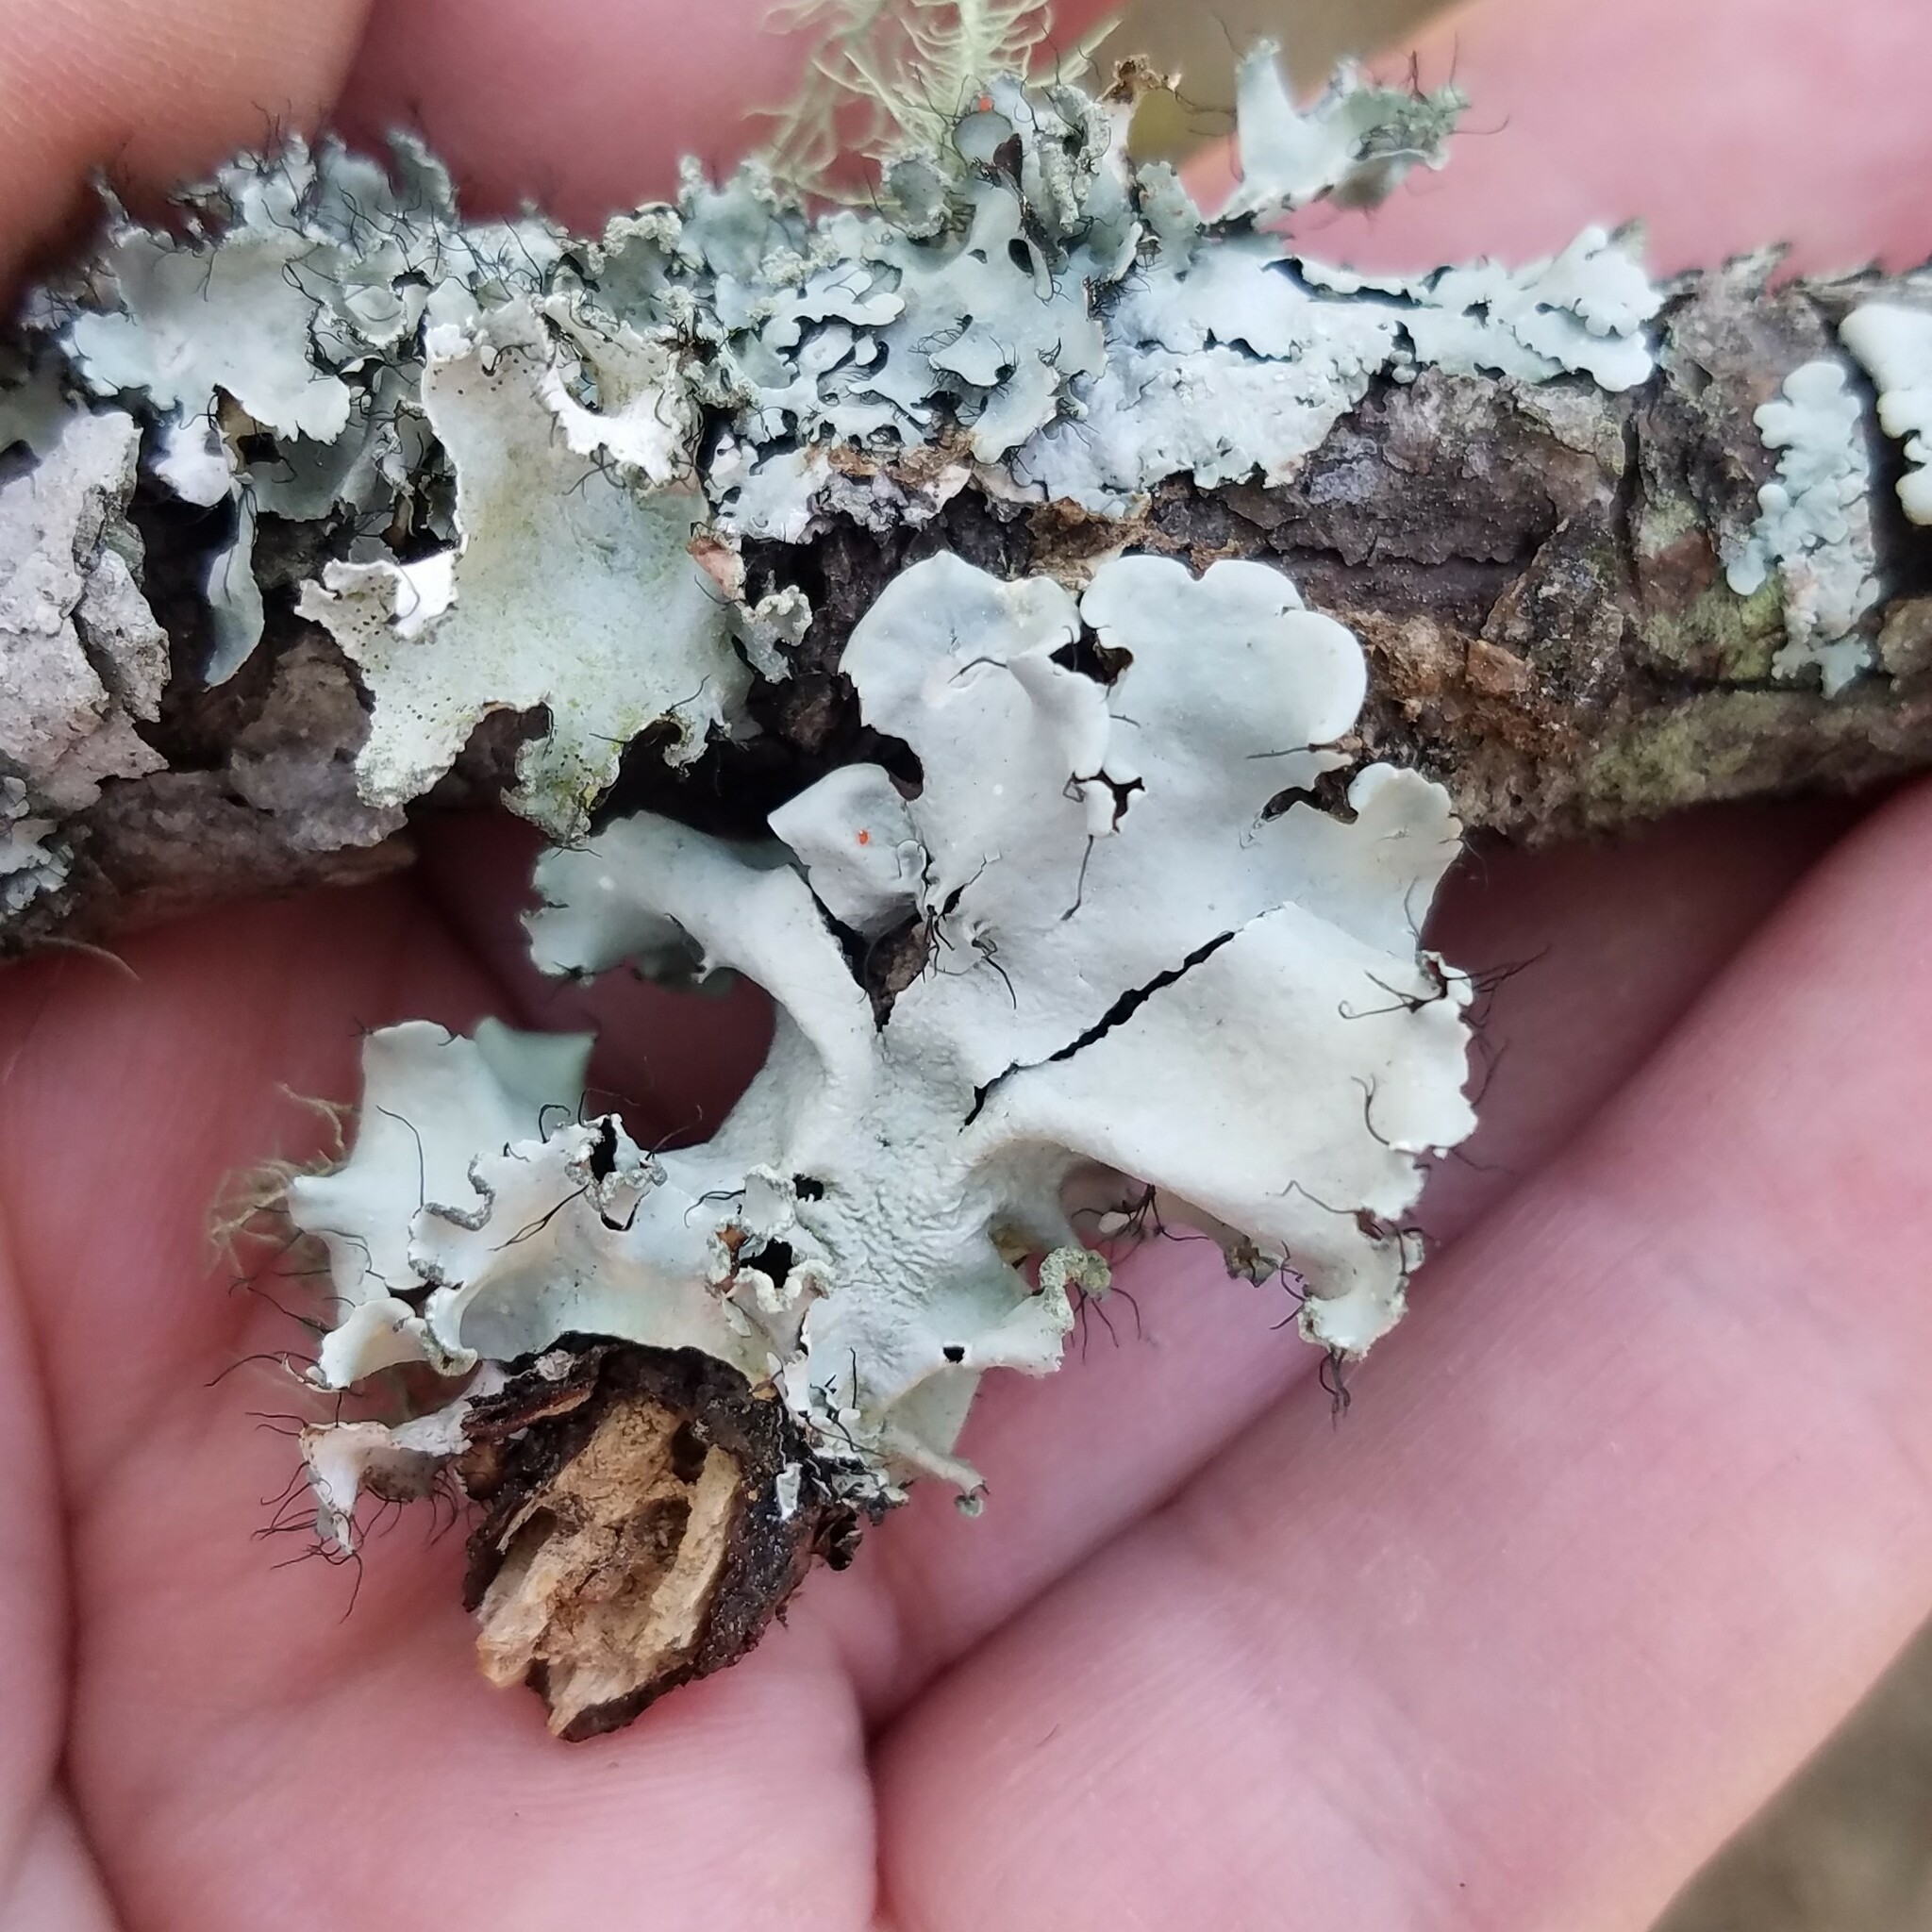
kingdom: Fungi
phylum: Ascomycota
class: Lecanoromycetes
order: Lecanorales
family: Parmeliaceae
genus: Parmotrema
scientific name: Parmotrema rampoddense
